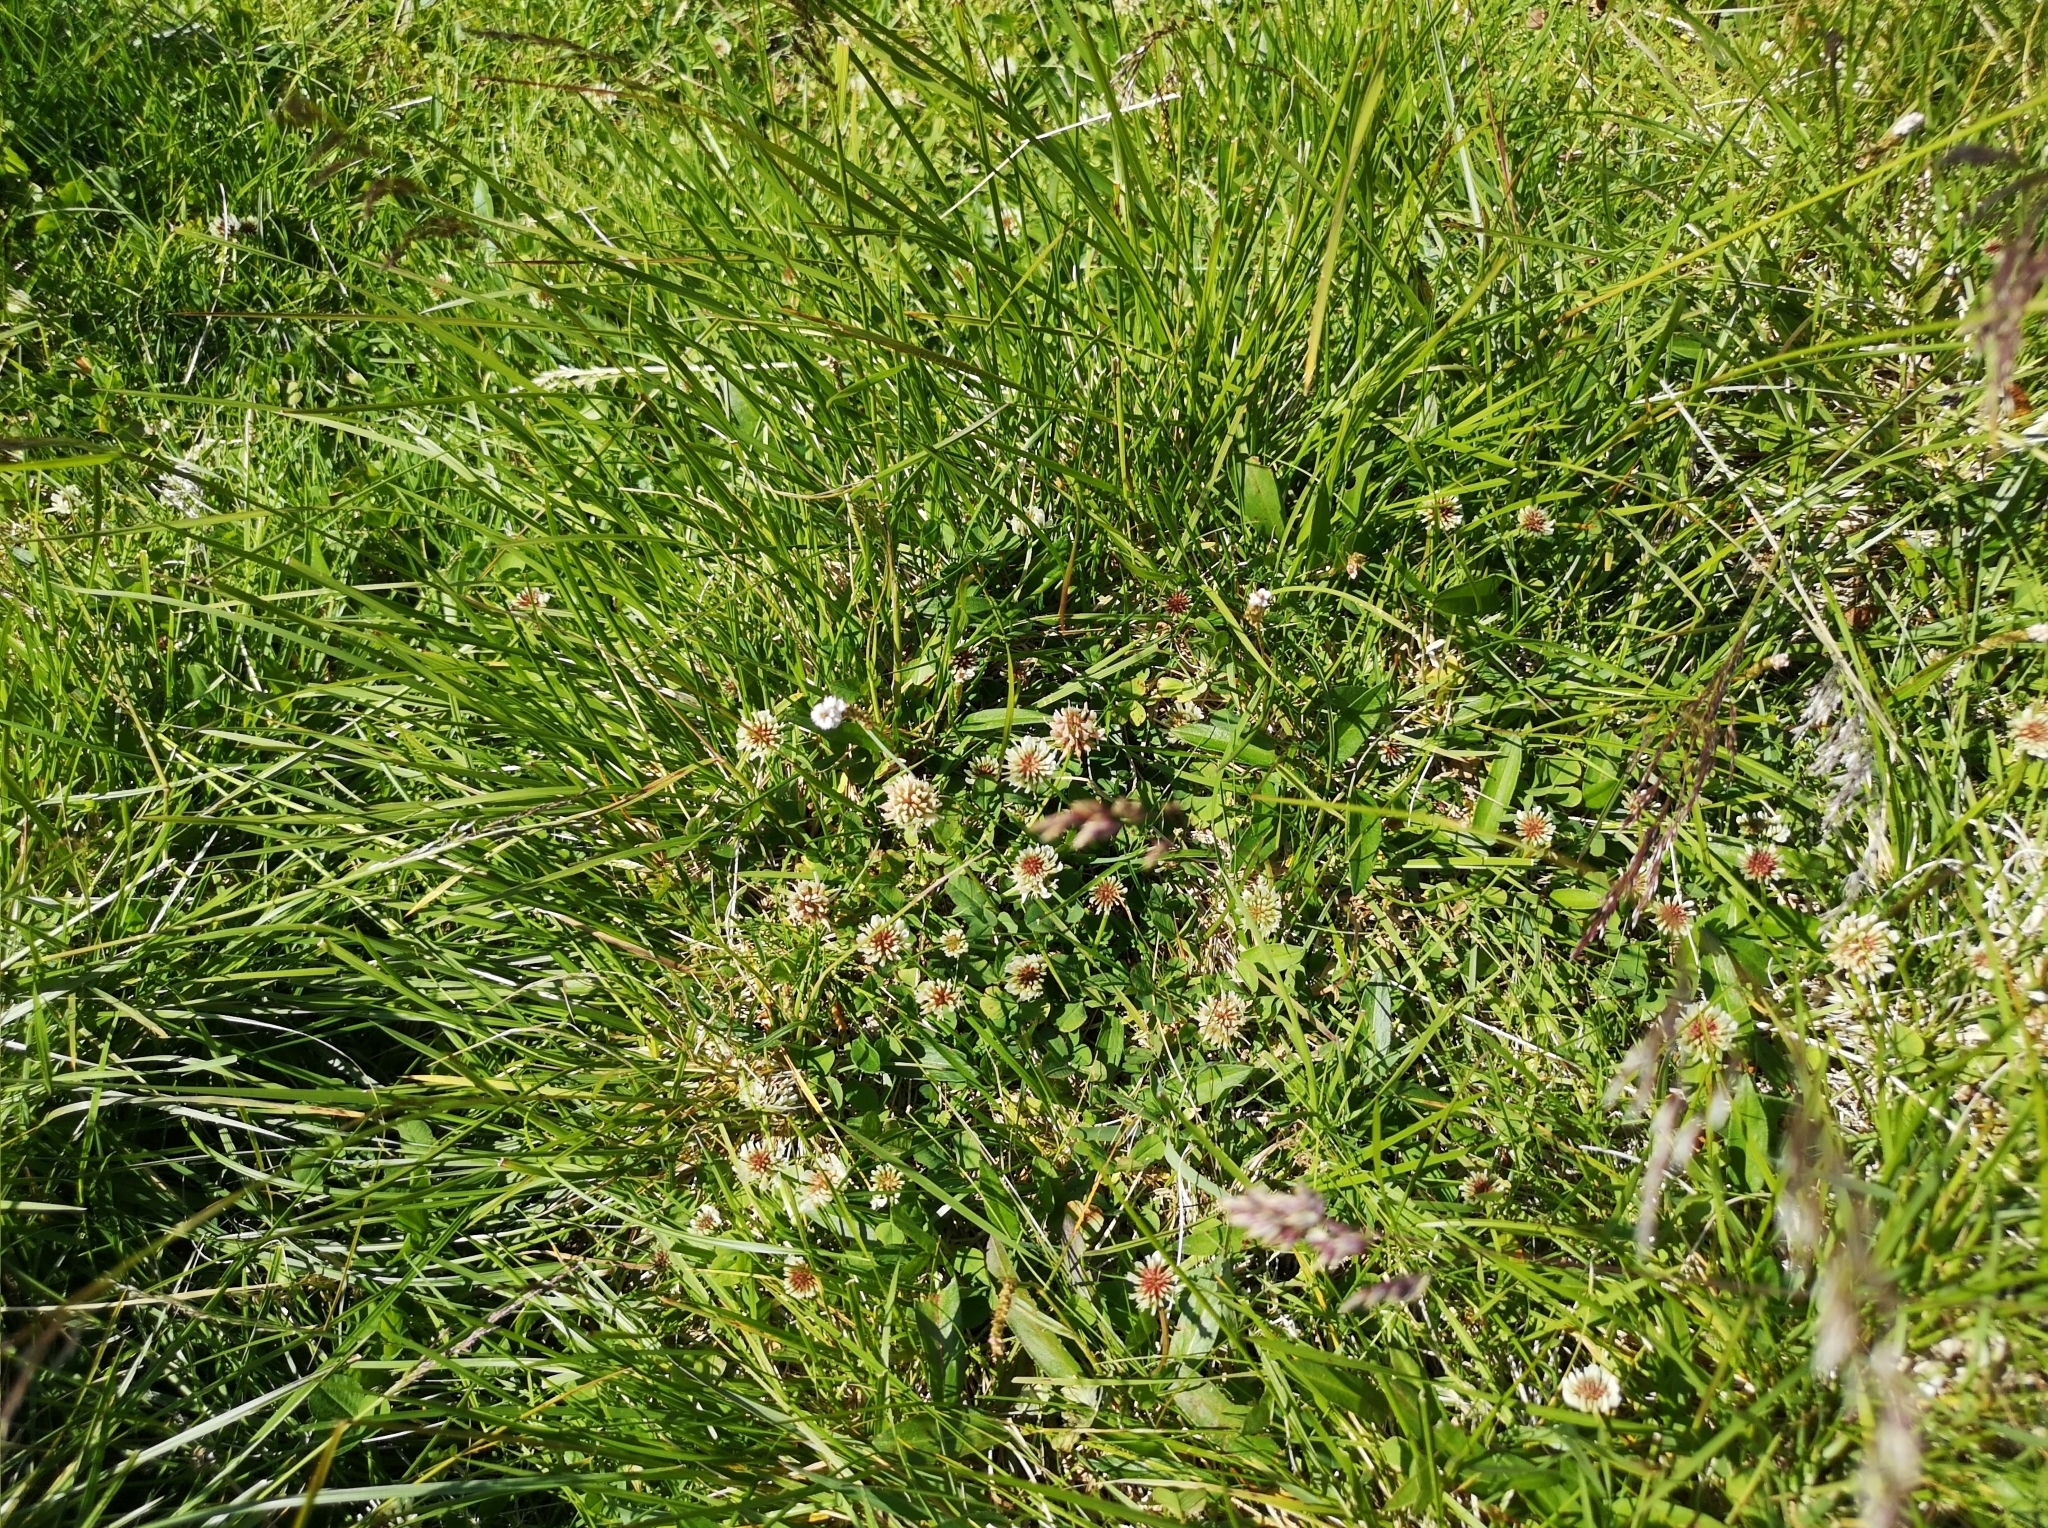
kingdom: Plantae
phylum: Tracheophyta
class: Magnoliopsida
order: Fabales
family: Fabaceae
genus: Trifolium
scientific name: Trifolium repens
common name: White clover
